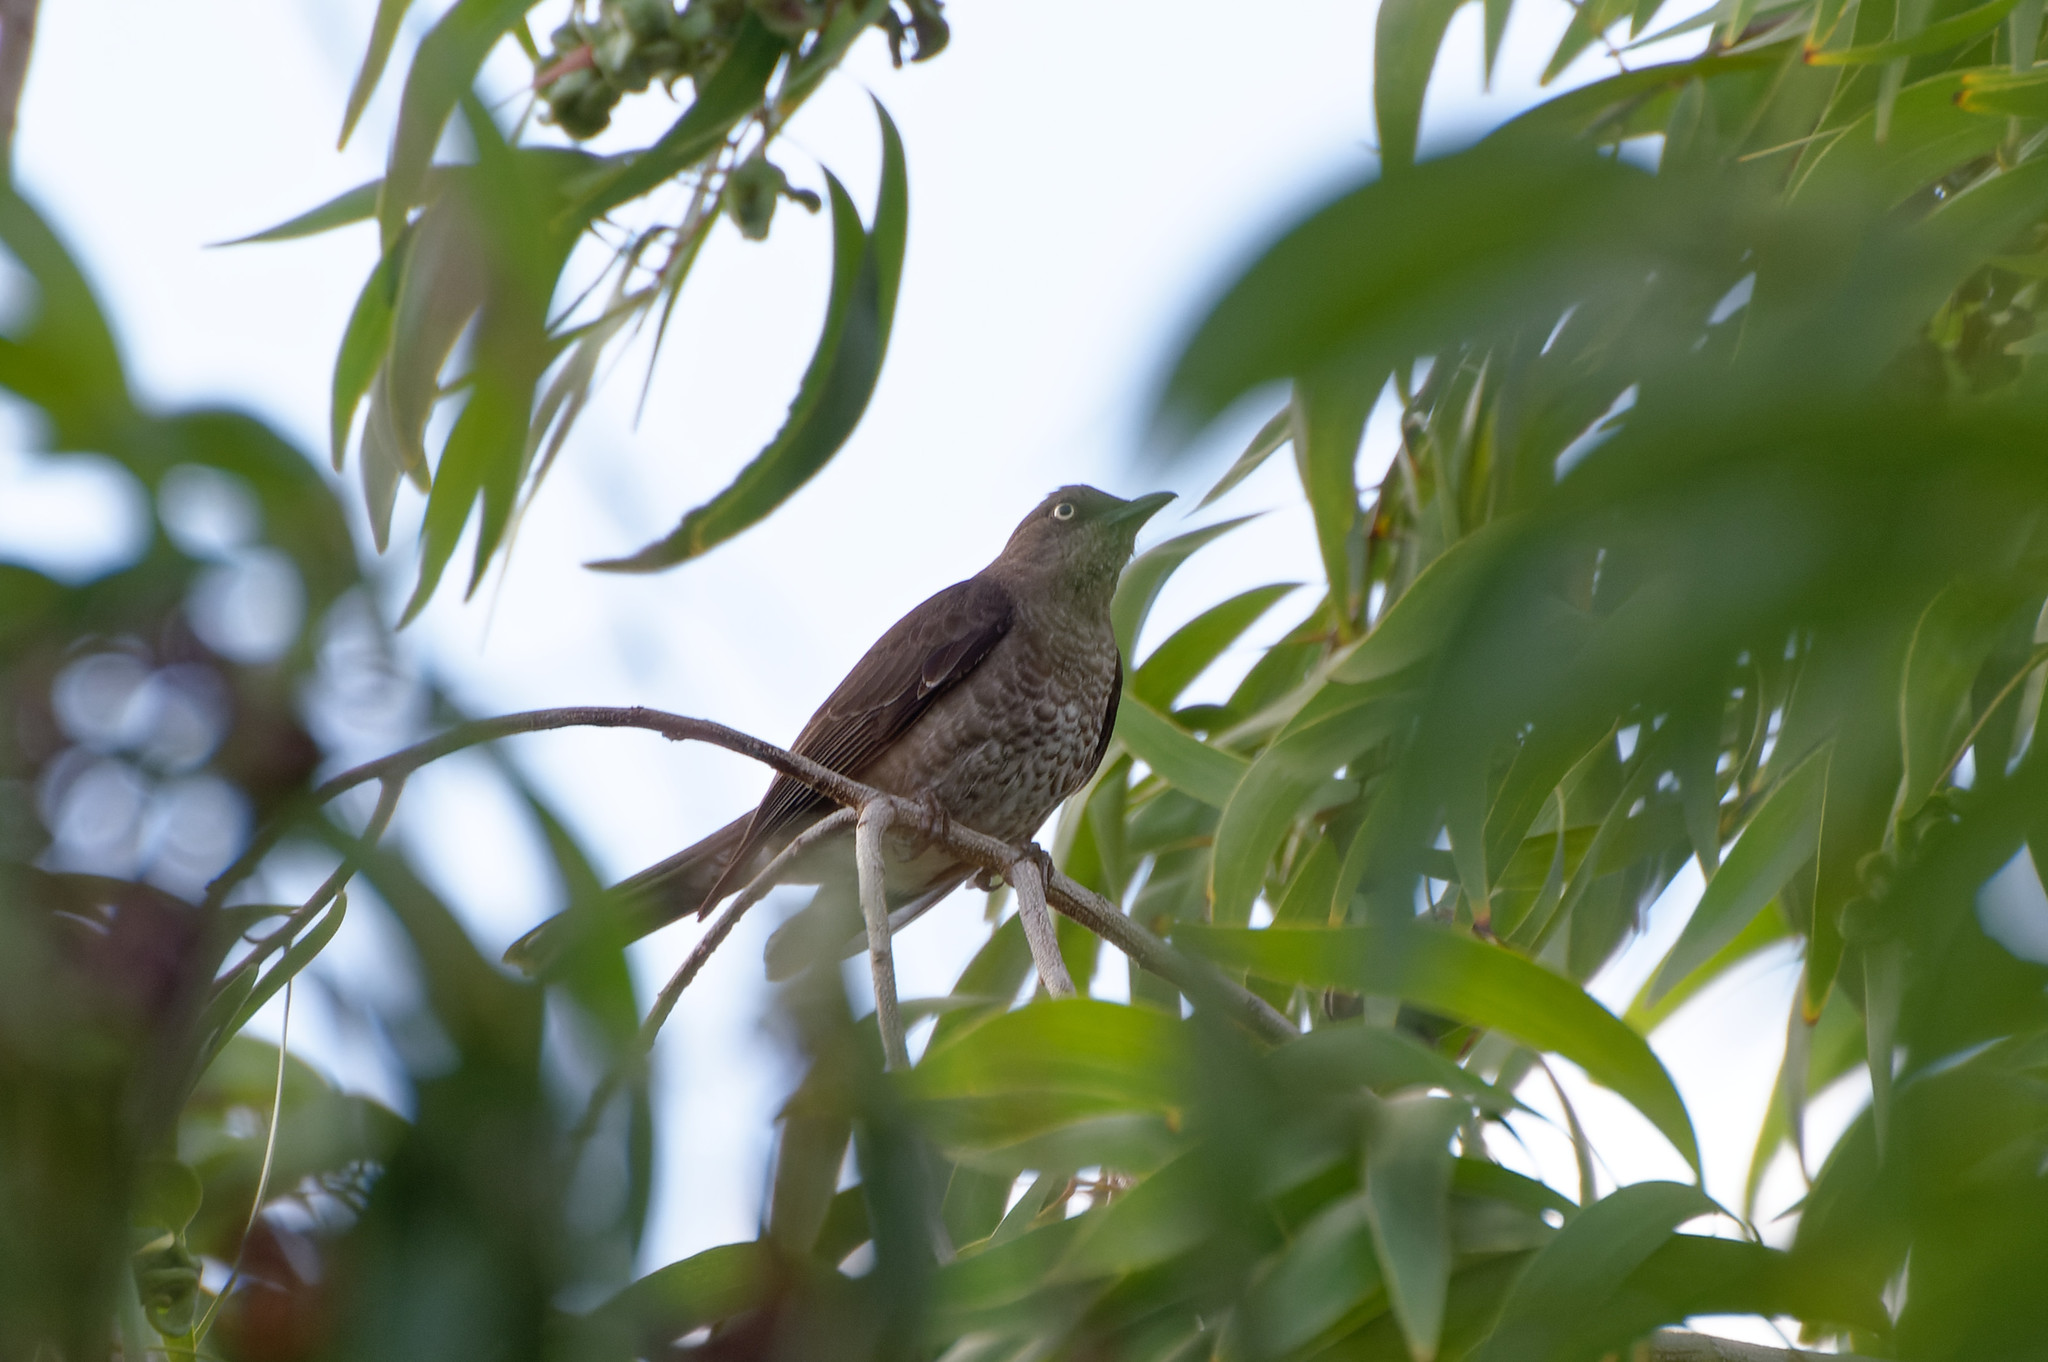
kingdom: Animalia
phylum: Chordata
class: Aves
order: Passeriformes
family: Mimidae
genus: Allenia
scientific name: Allenia fusca
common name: Scaly-breasted thrasher
